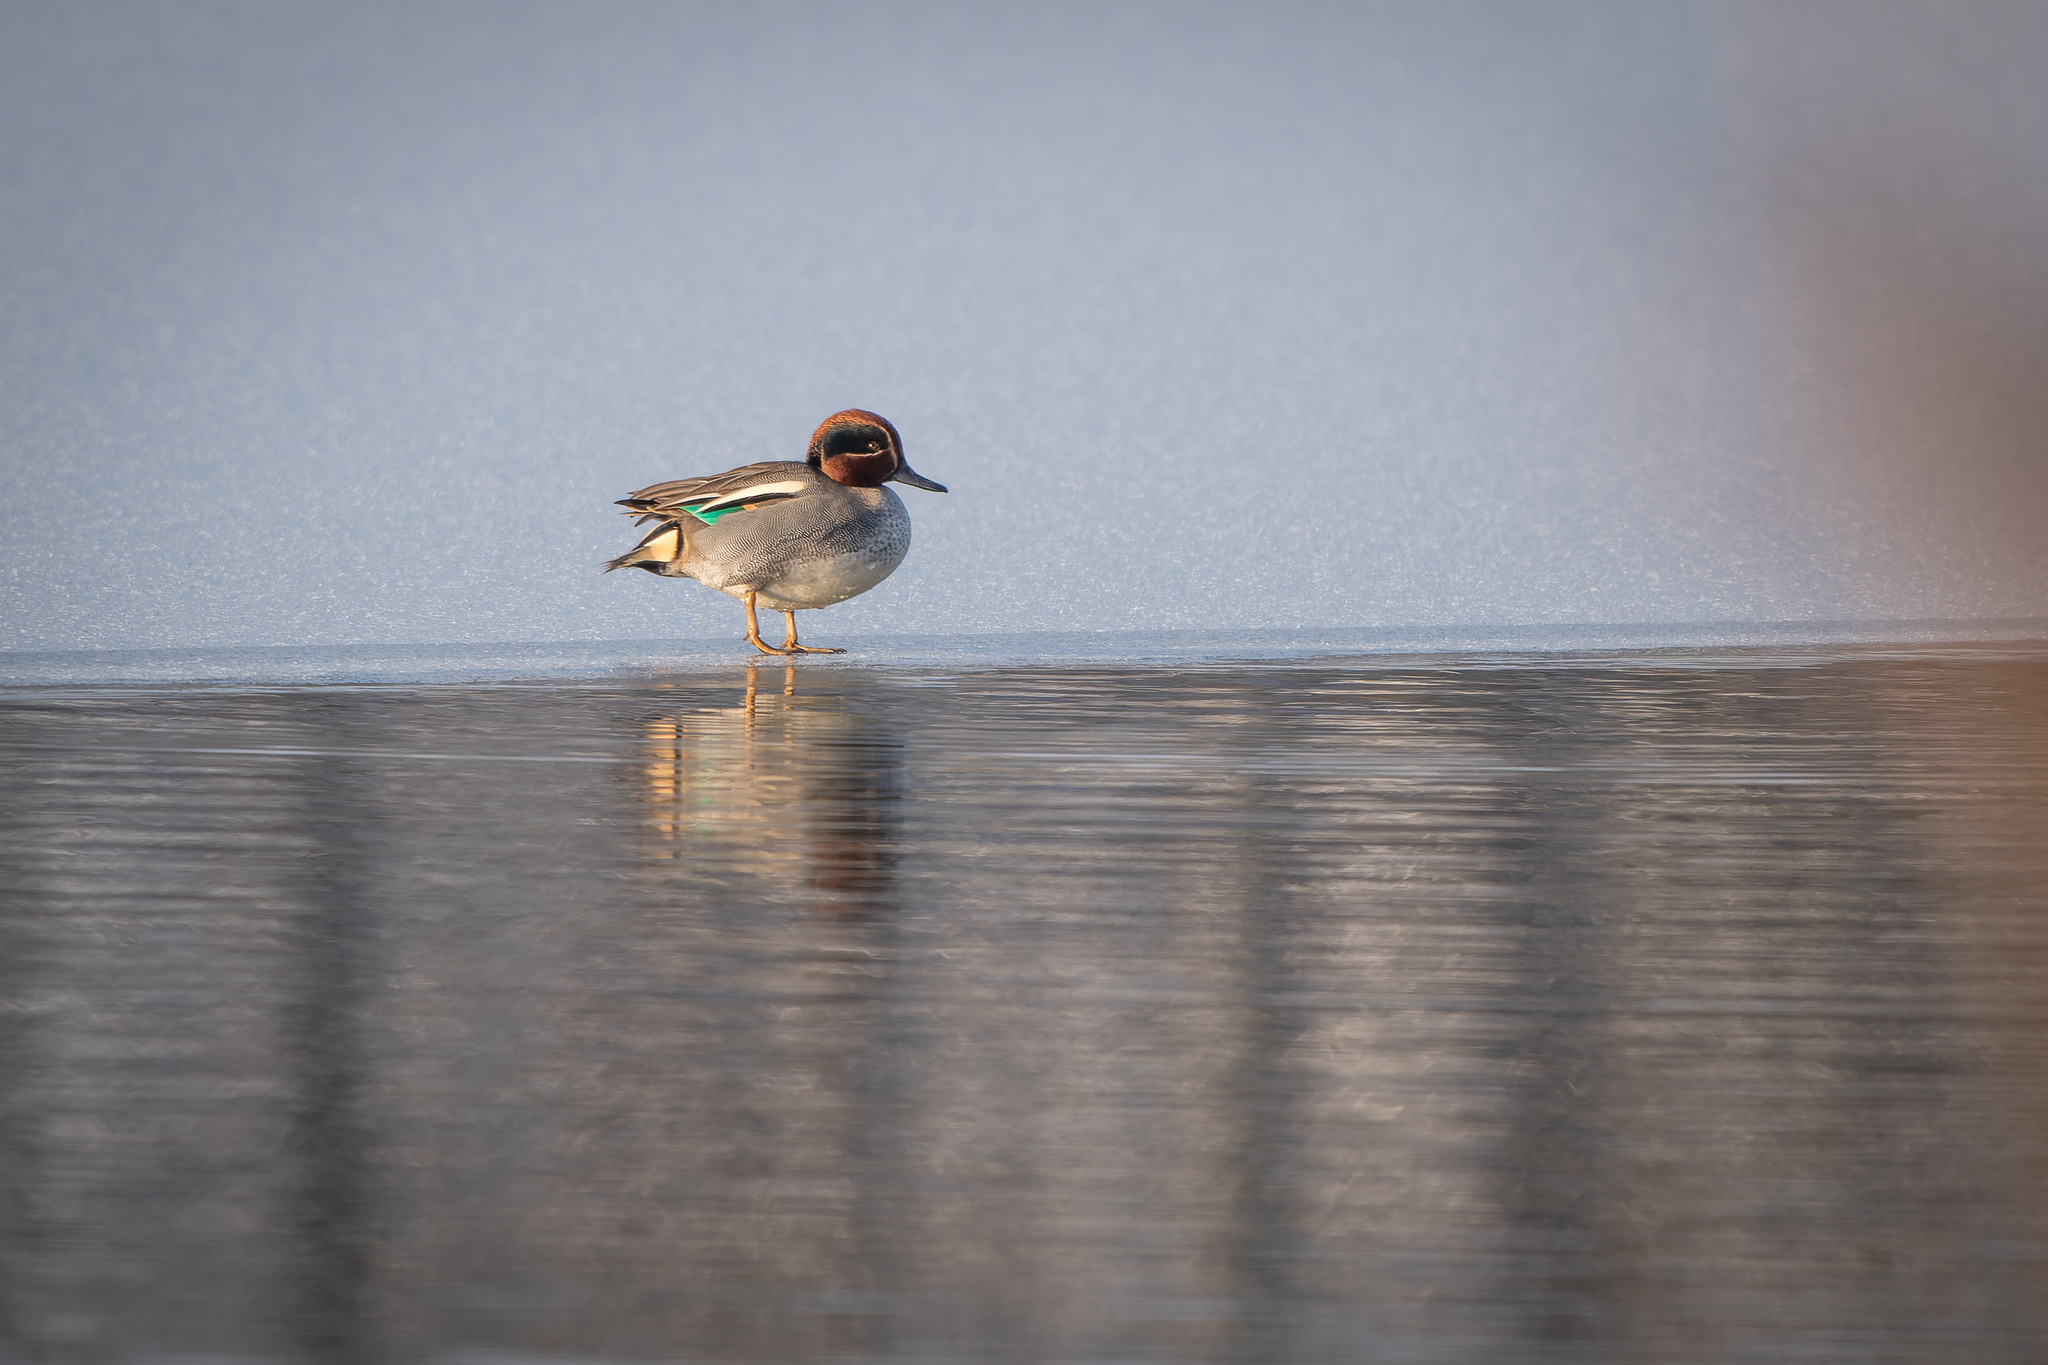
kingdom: Animalia
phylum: Chordata
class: Aves
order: Anseriformes
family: Anatidae
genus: Anas
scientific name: Anas crecca
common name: Eurasian teal
